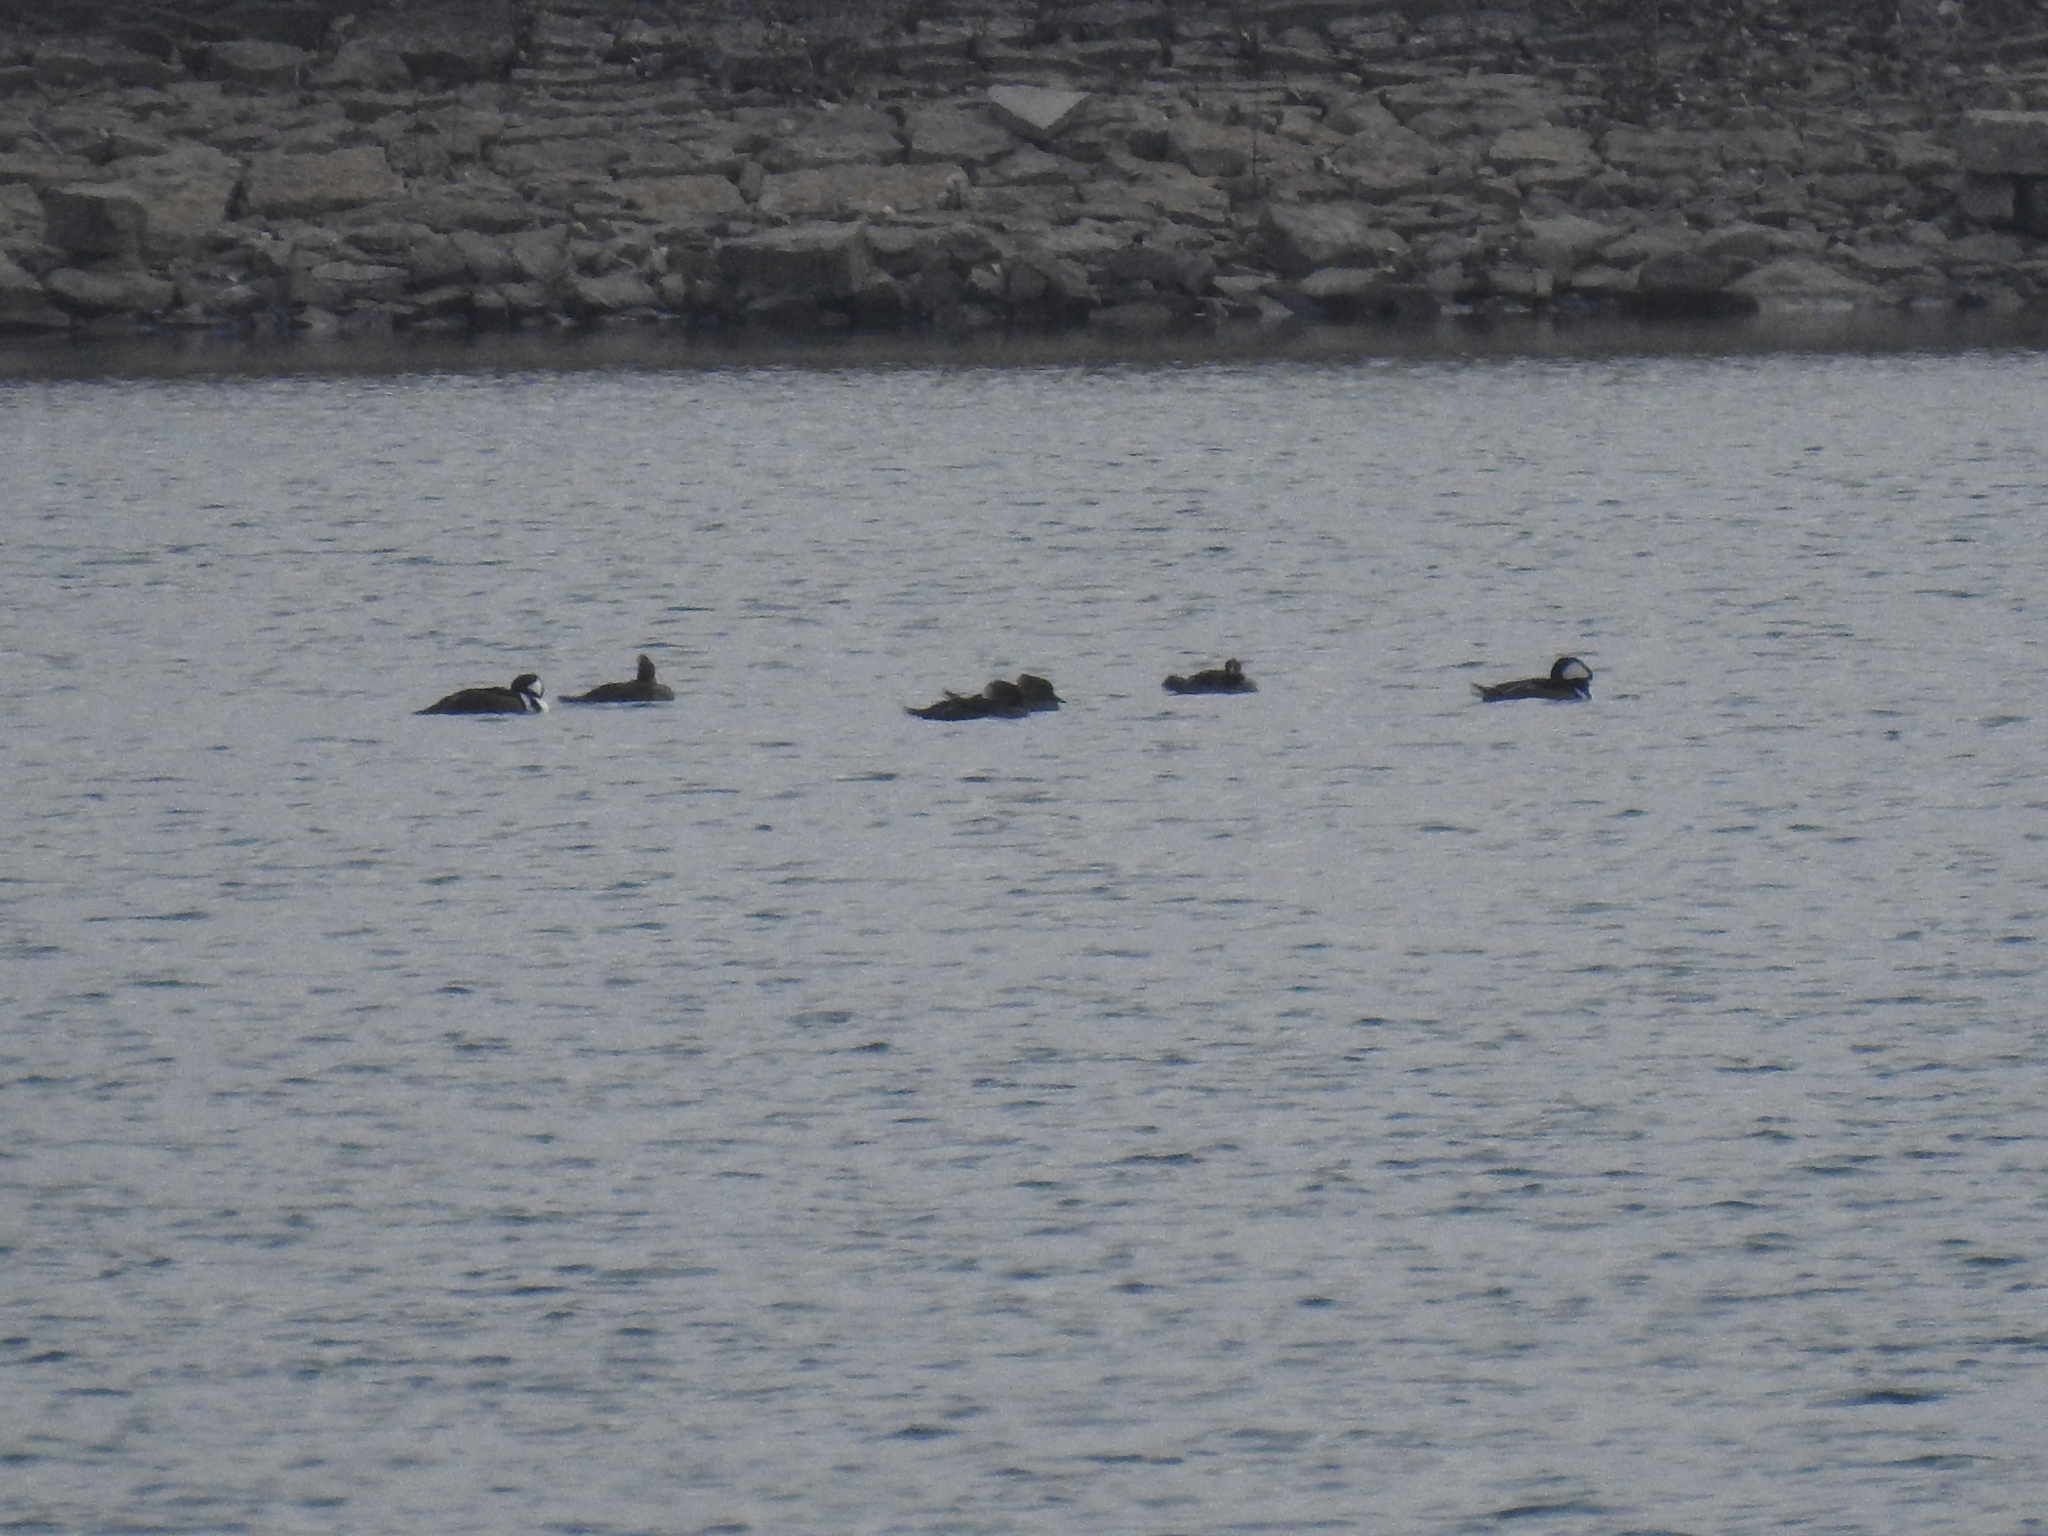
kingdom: Animalia
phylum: Chordata
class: Aves
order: Anseriformes
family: Anatidae
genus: Lophodytes
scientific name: Lophodytes cucullatus
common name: Hooded merganser
